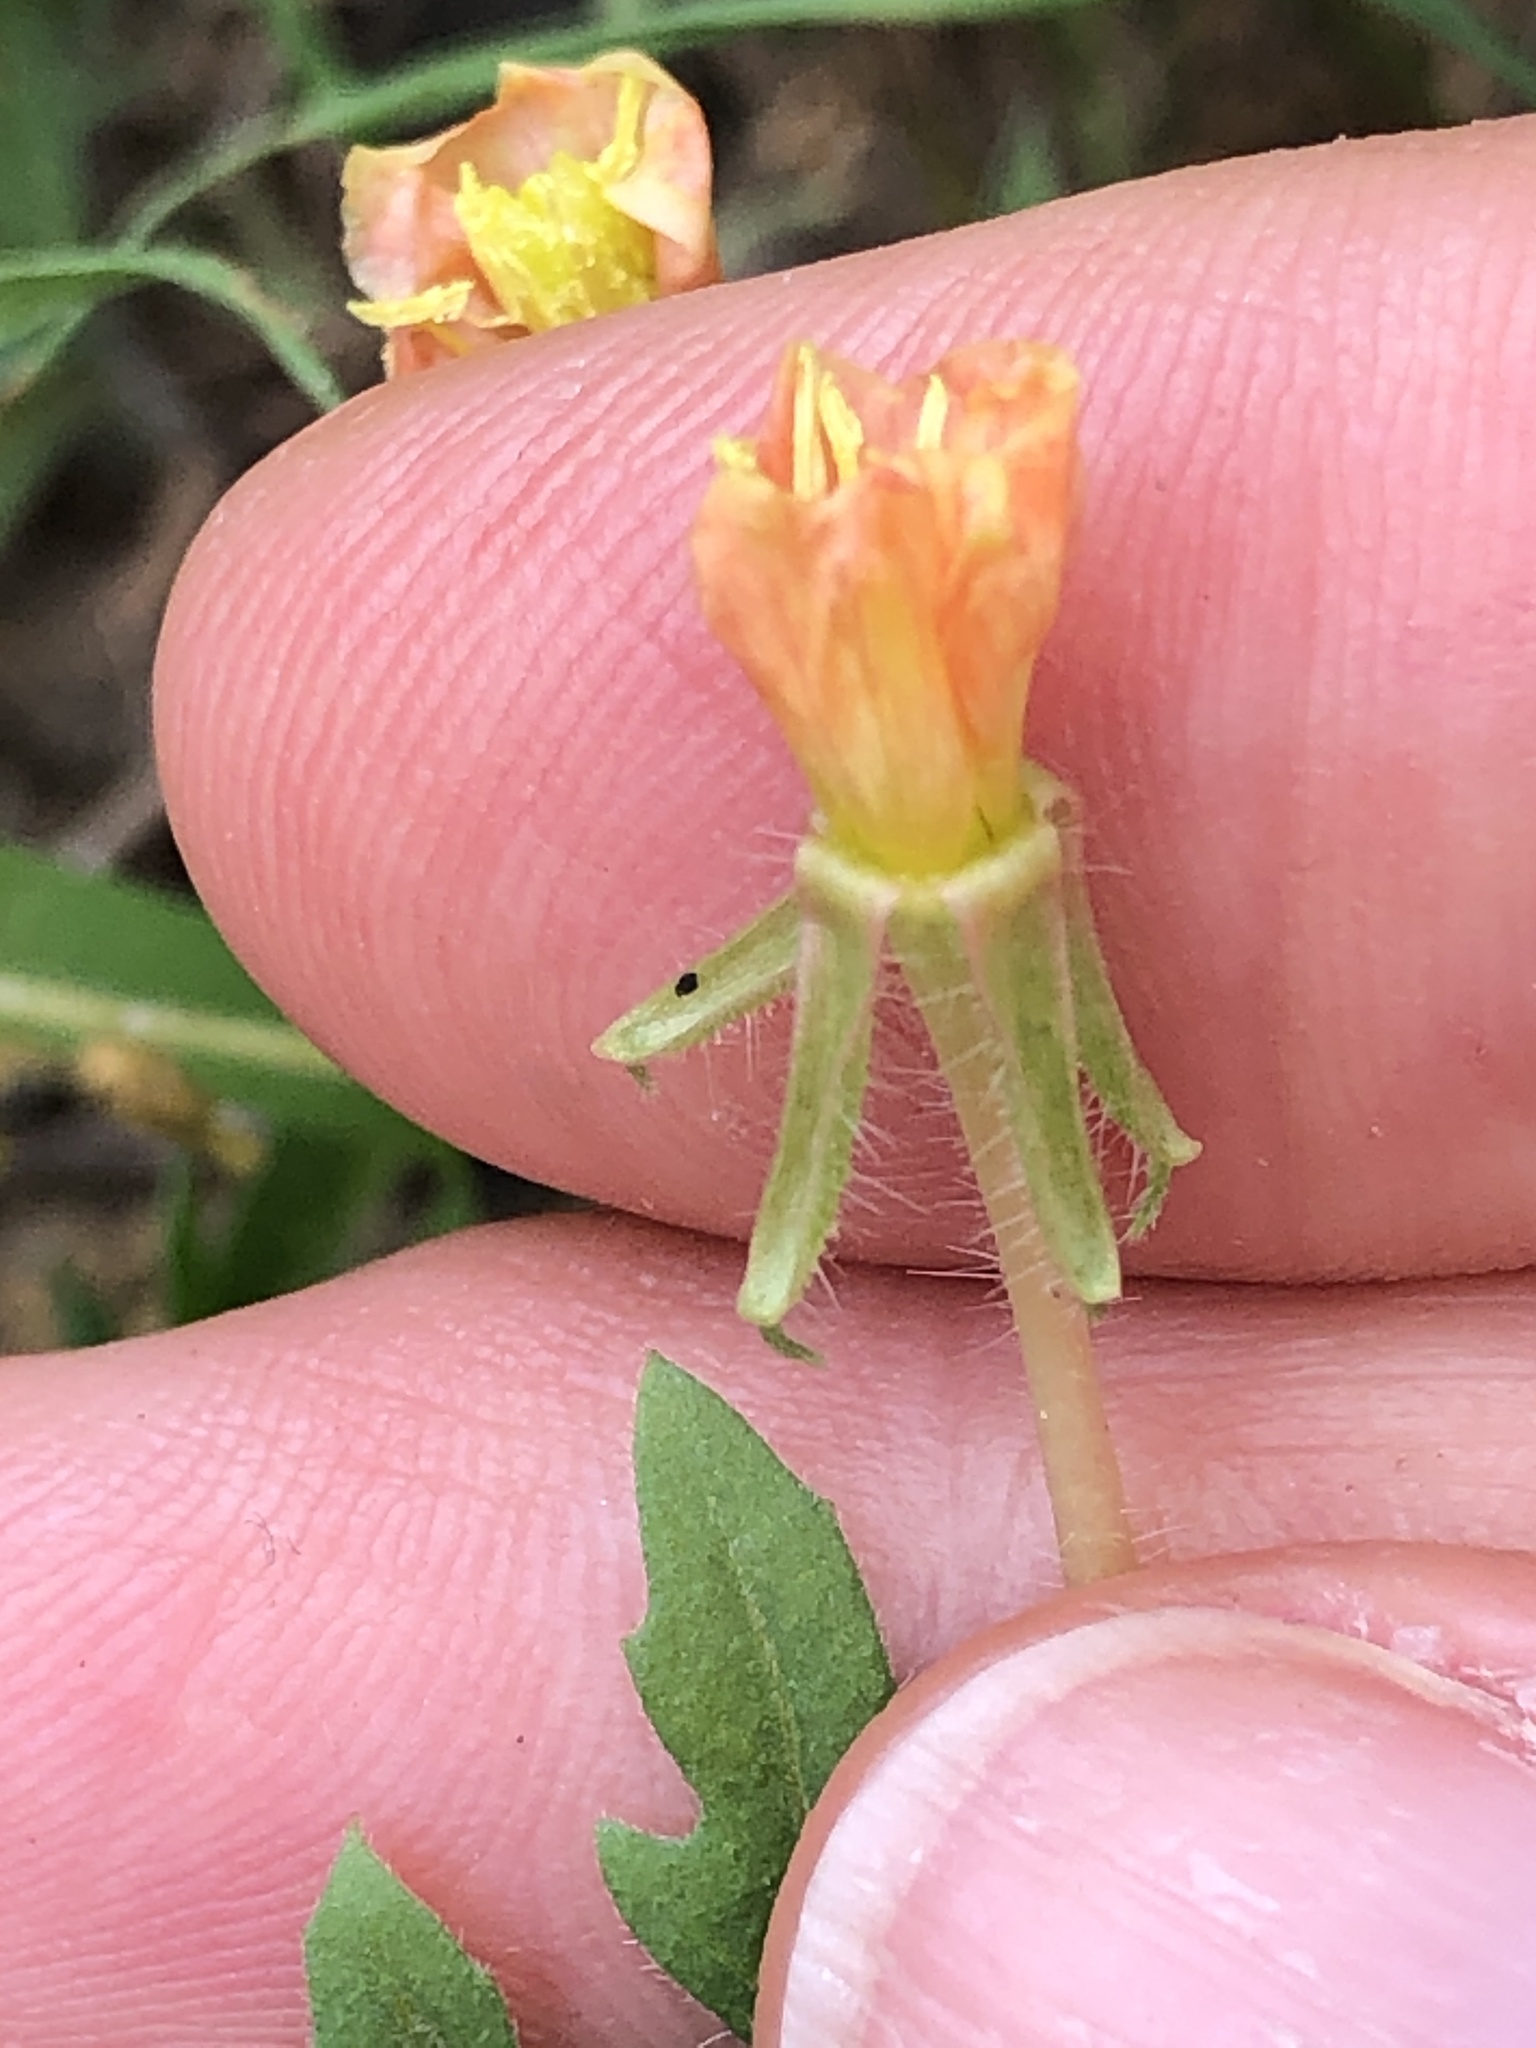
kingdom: Plantae
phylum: Tracheophyta
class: Magnoliopsida
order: Myrtales
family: Onagraceae
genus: Oenothera
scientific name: Oenothera laciniata
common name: Cut-leaved evening-primrose
